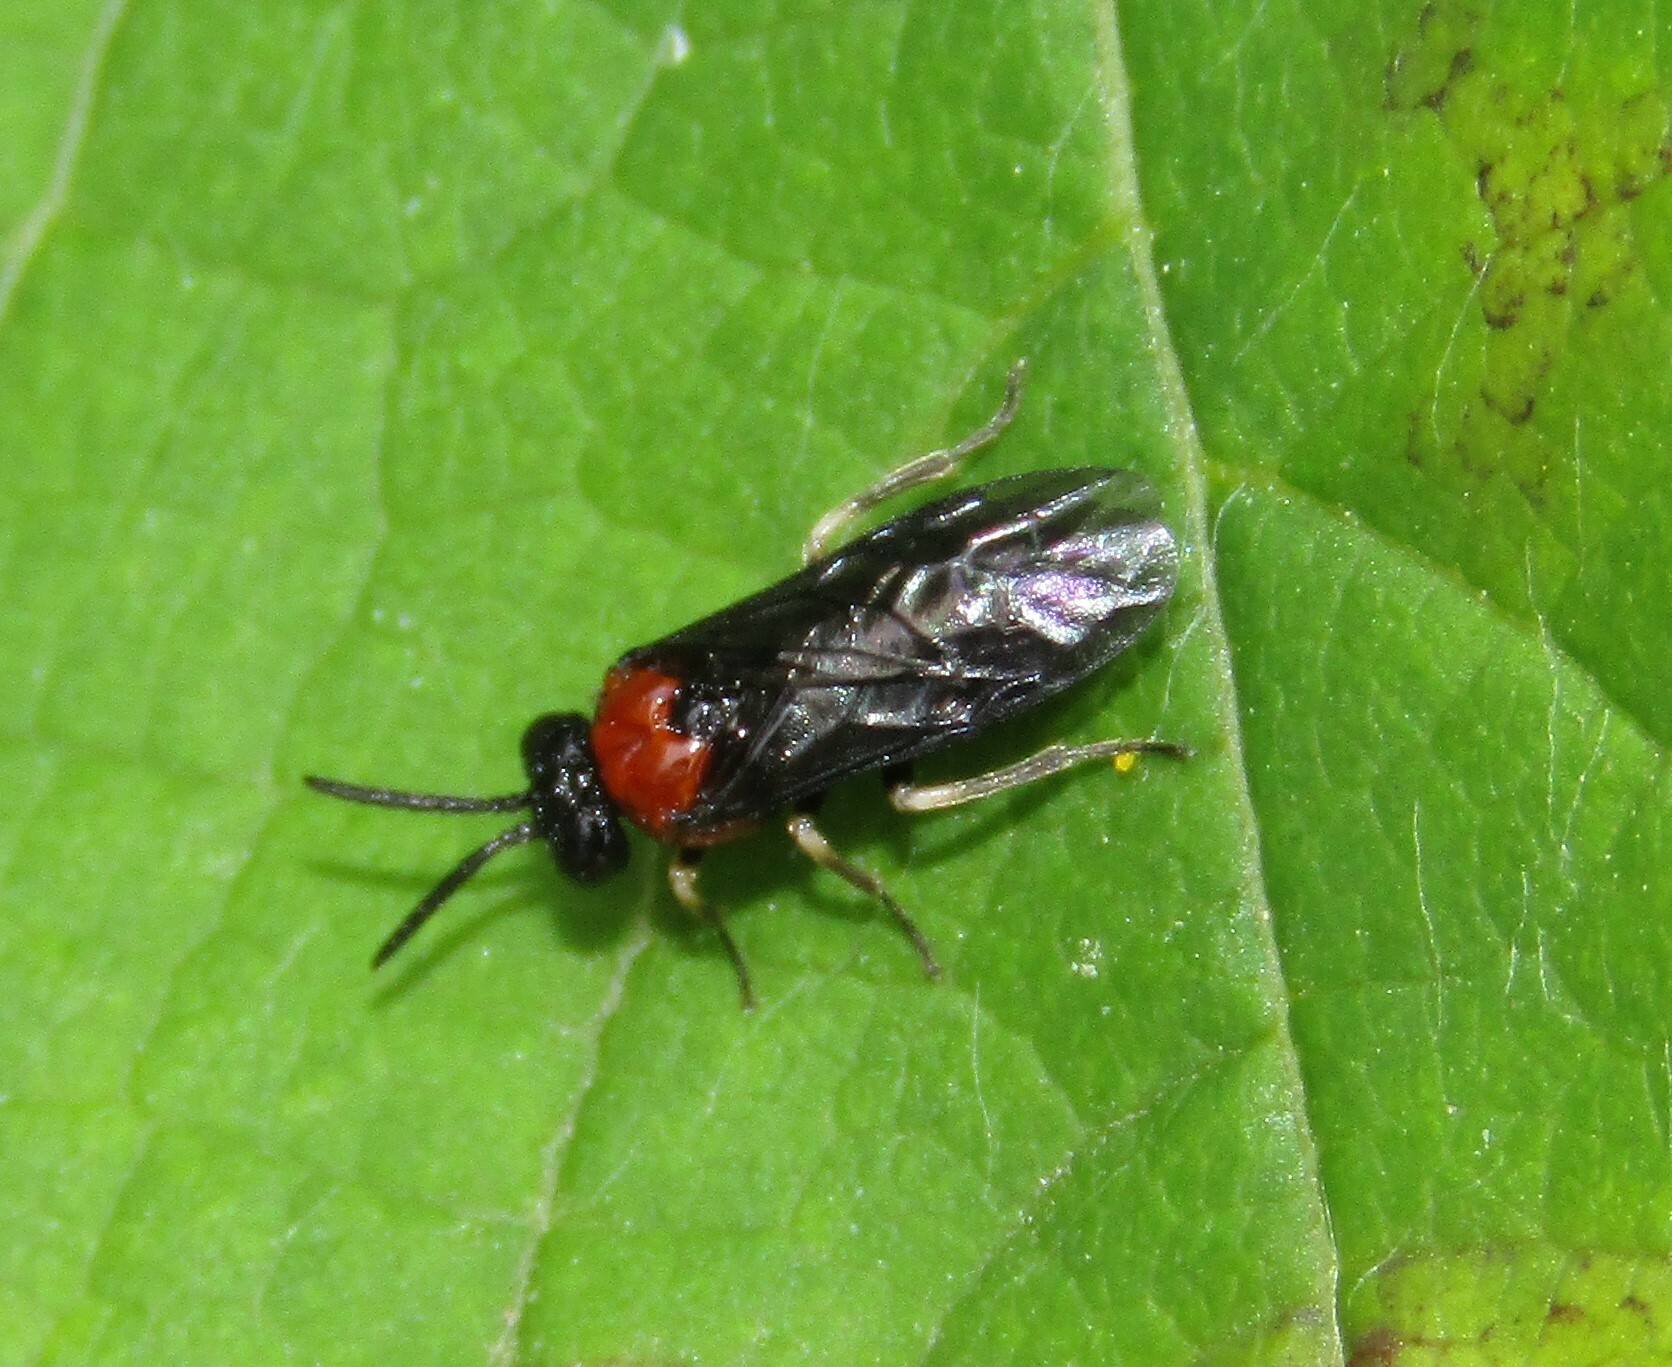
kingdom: Animalia
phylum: Arthropoda
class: Insecta
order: Hymenoptera
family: Tenthredinidae
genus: Eutomostethus
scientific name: Eutomostethus ephippium
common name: Tenthredid wasp
